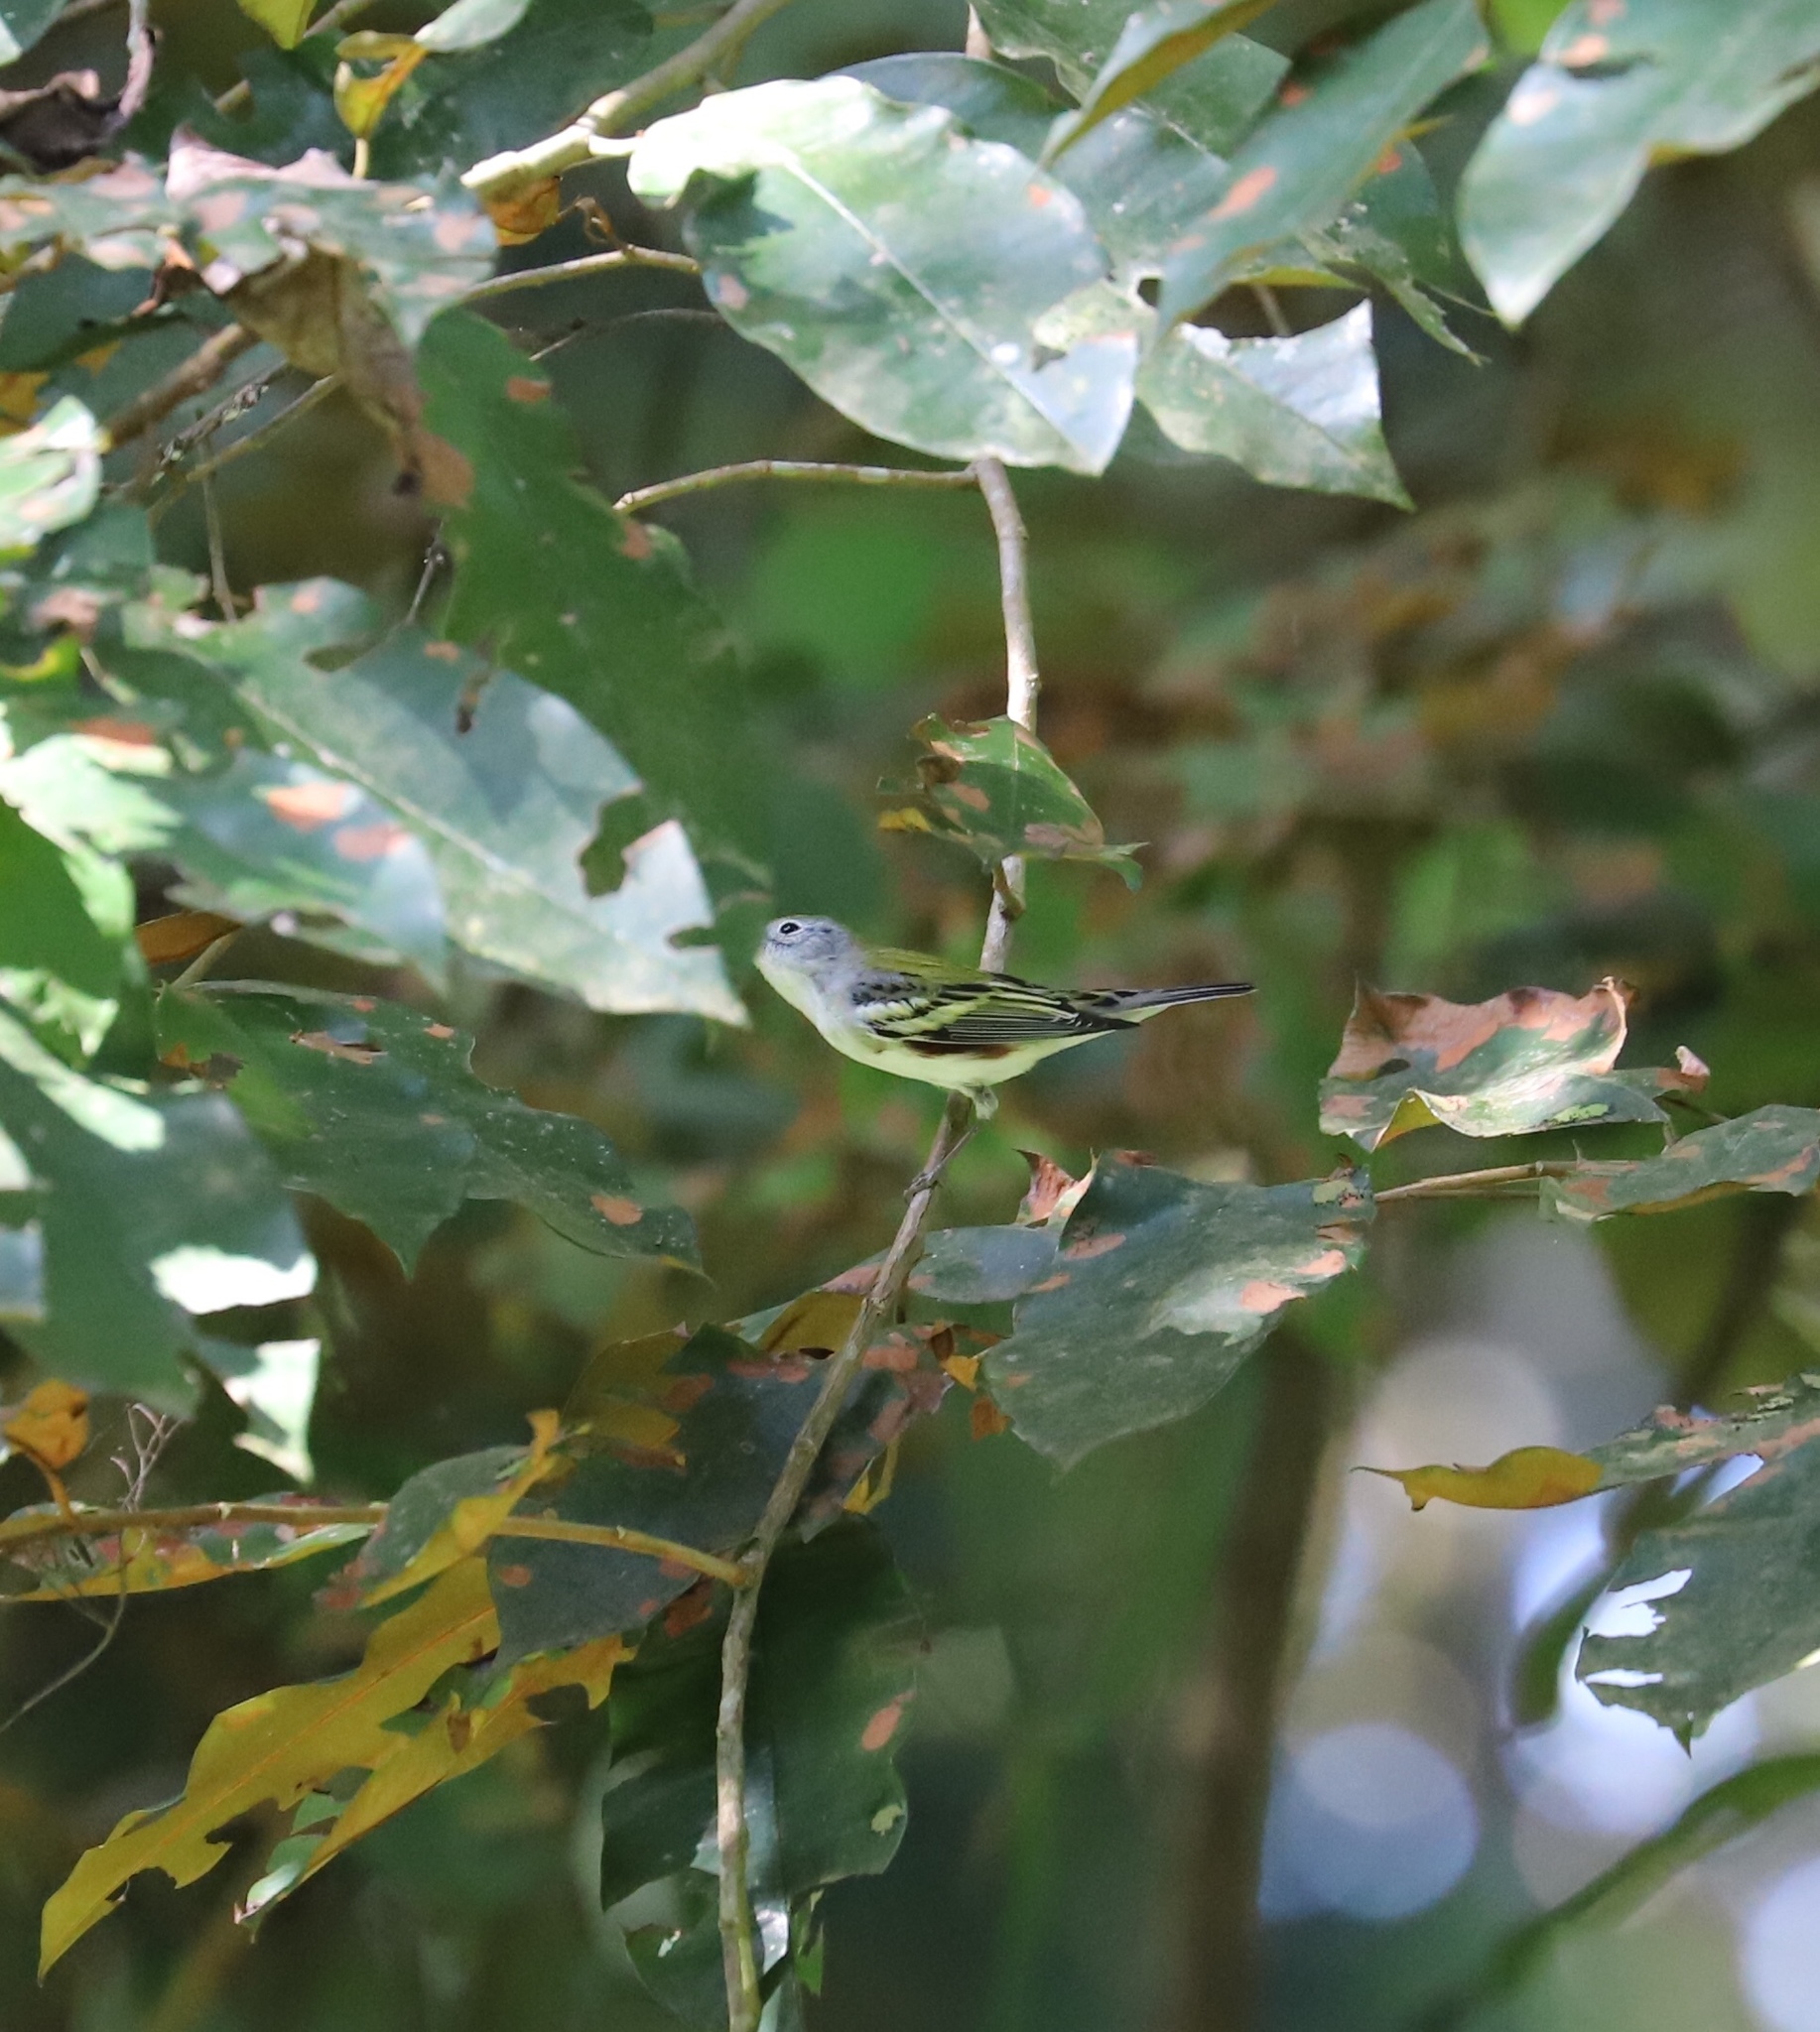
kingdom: Animalia
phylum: Chordata
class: Aves
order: Passeriformes
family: Parulidae
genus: Setophaga
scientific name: Setophaga pensylvanica
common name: Chestnut-sided warbler
